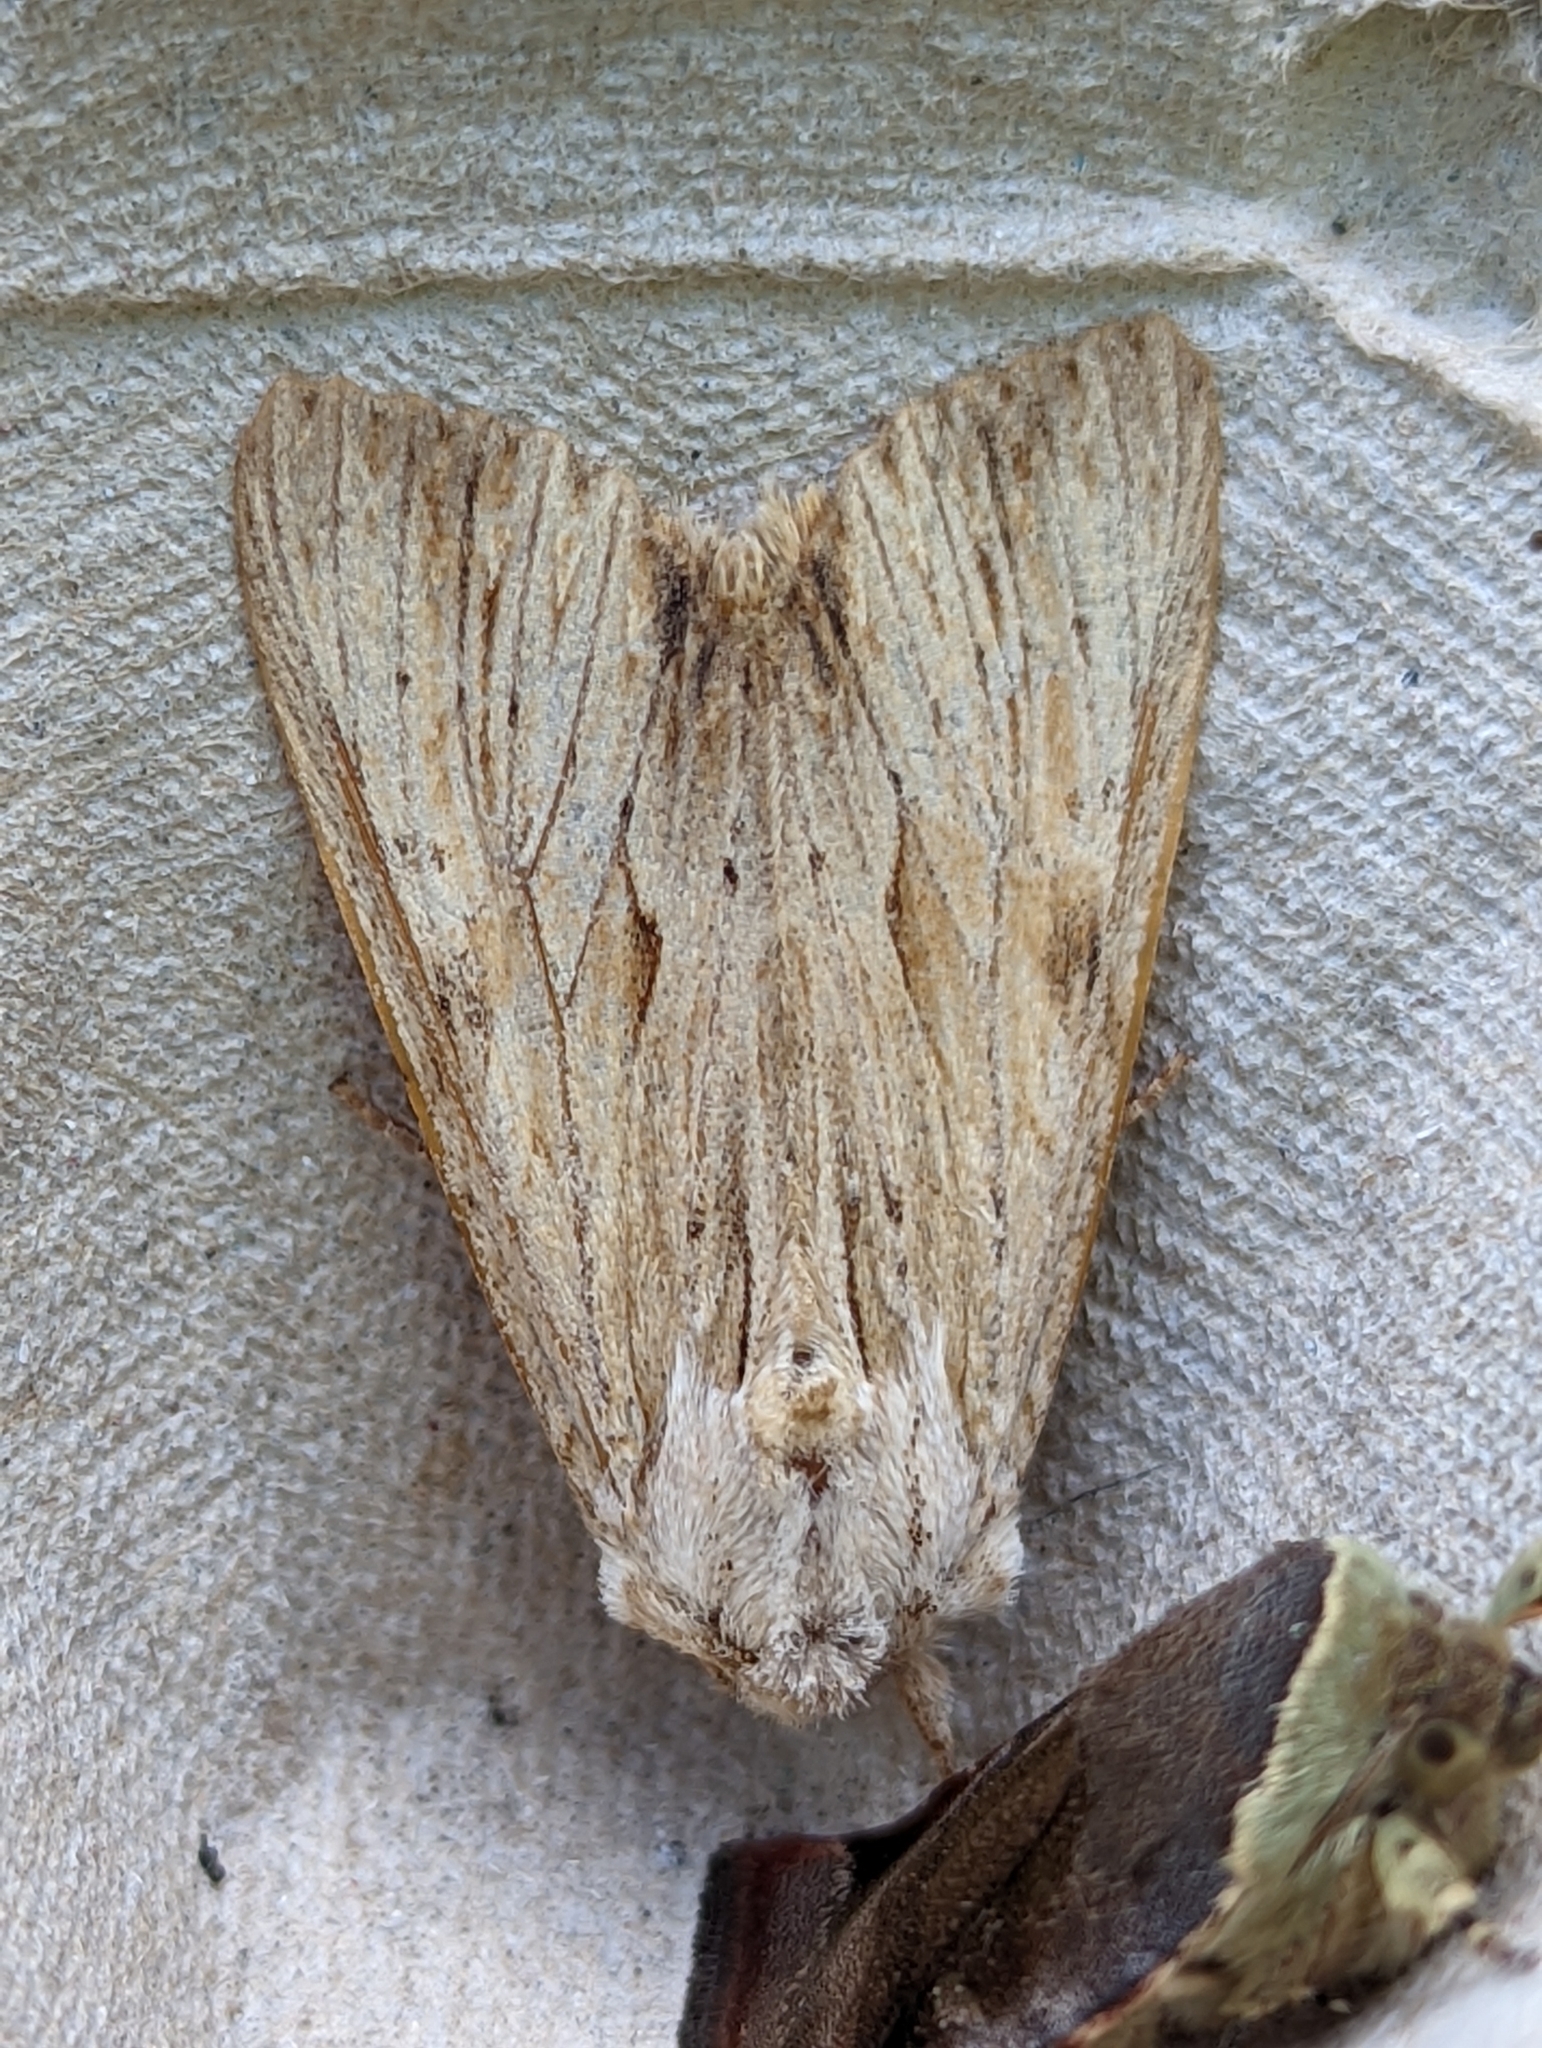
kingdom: Animalia
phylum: Arthropoda
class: Insecta
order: Lepidoptera
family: Noctuidae
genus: Apamea
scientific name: Apamea lithoxylaea
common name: Light arches
